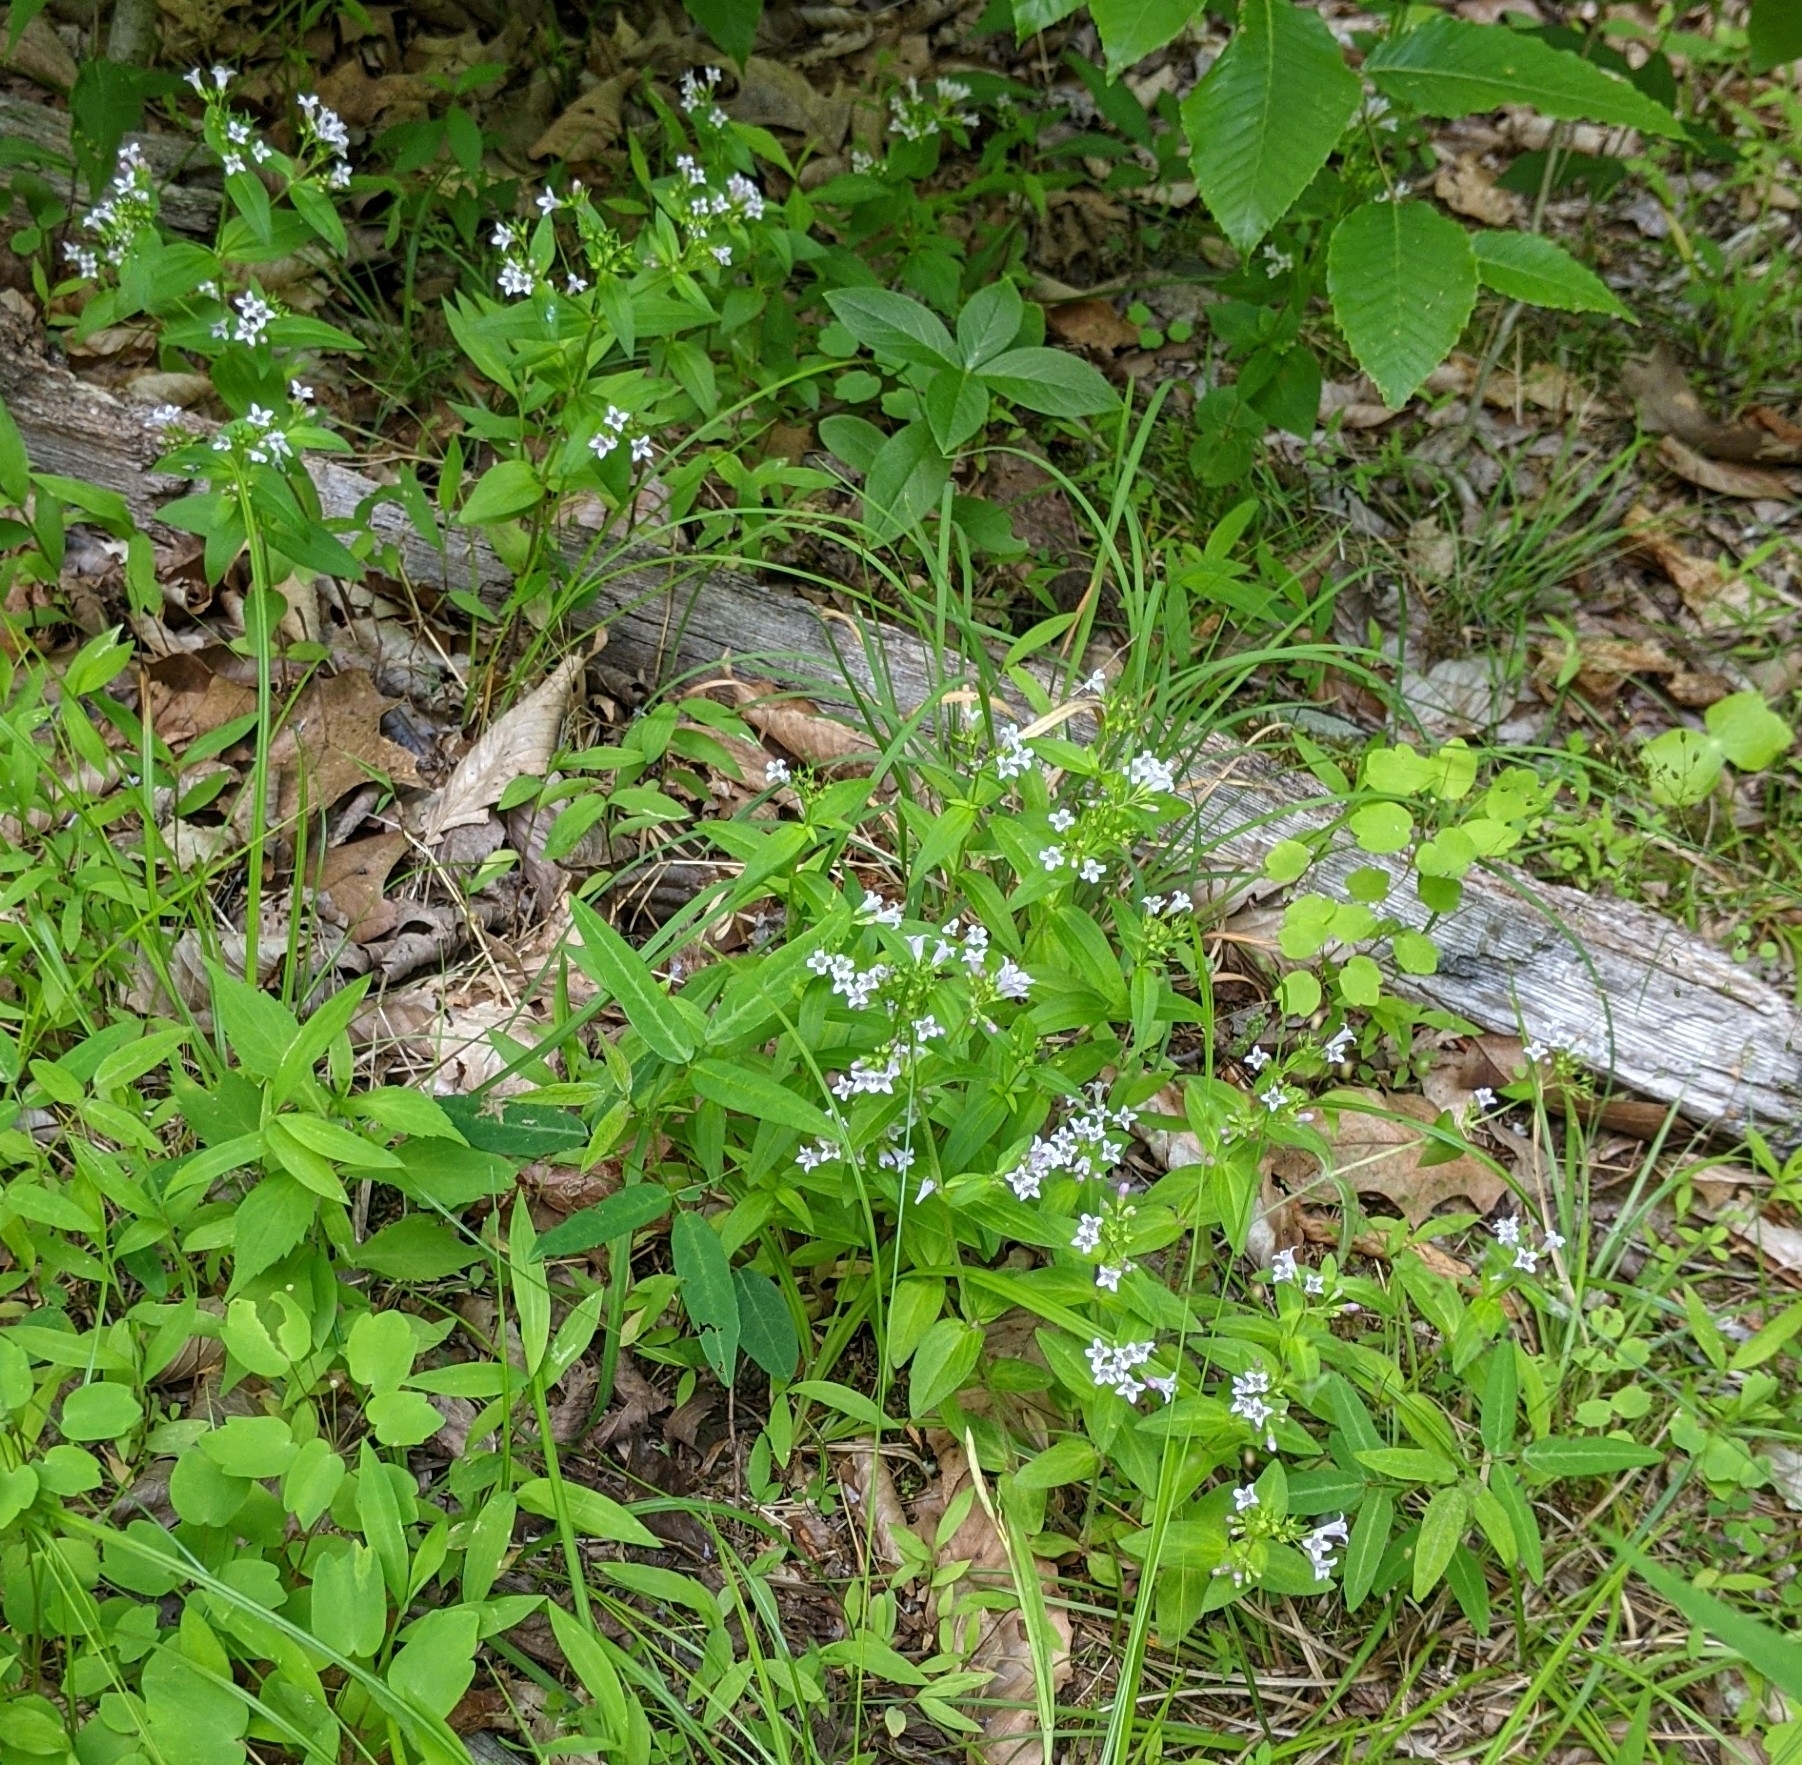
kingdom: Plantae
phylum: Tracheophyta
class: Magnoliopsida
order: Gentianales
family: Rubiaceae
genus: Houstonia
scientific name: Houstonia purpurea
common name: Summer bluet
